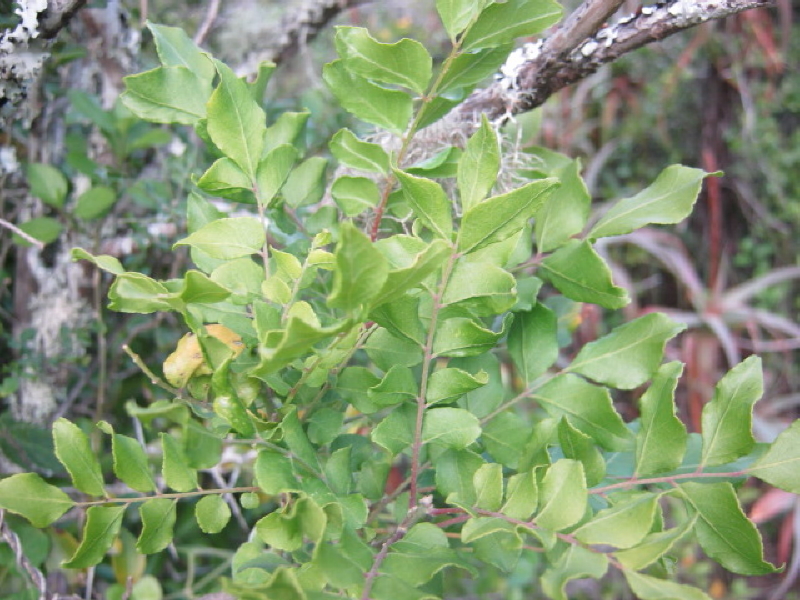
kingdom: Plantae
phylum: Tracheophyta
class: Magnoliopsida
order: Sapindales
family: Rutaceae
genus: Clausena
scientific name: Clausena anisata
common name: Horsewood
